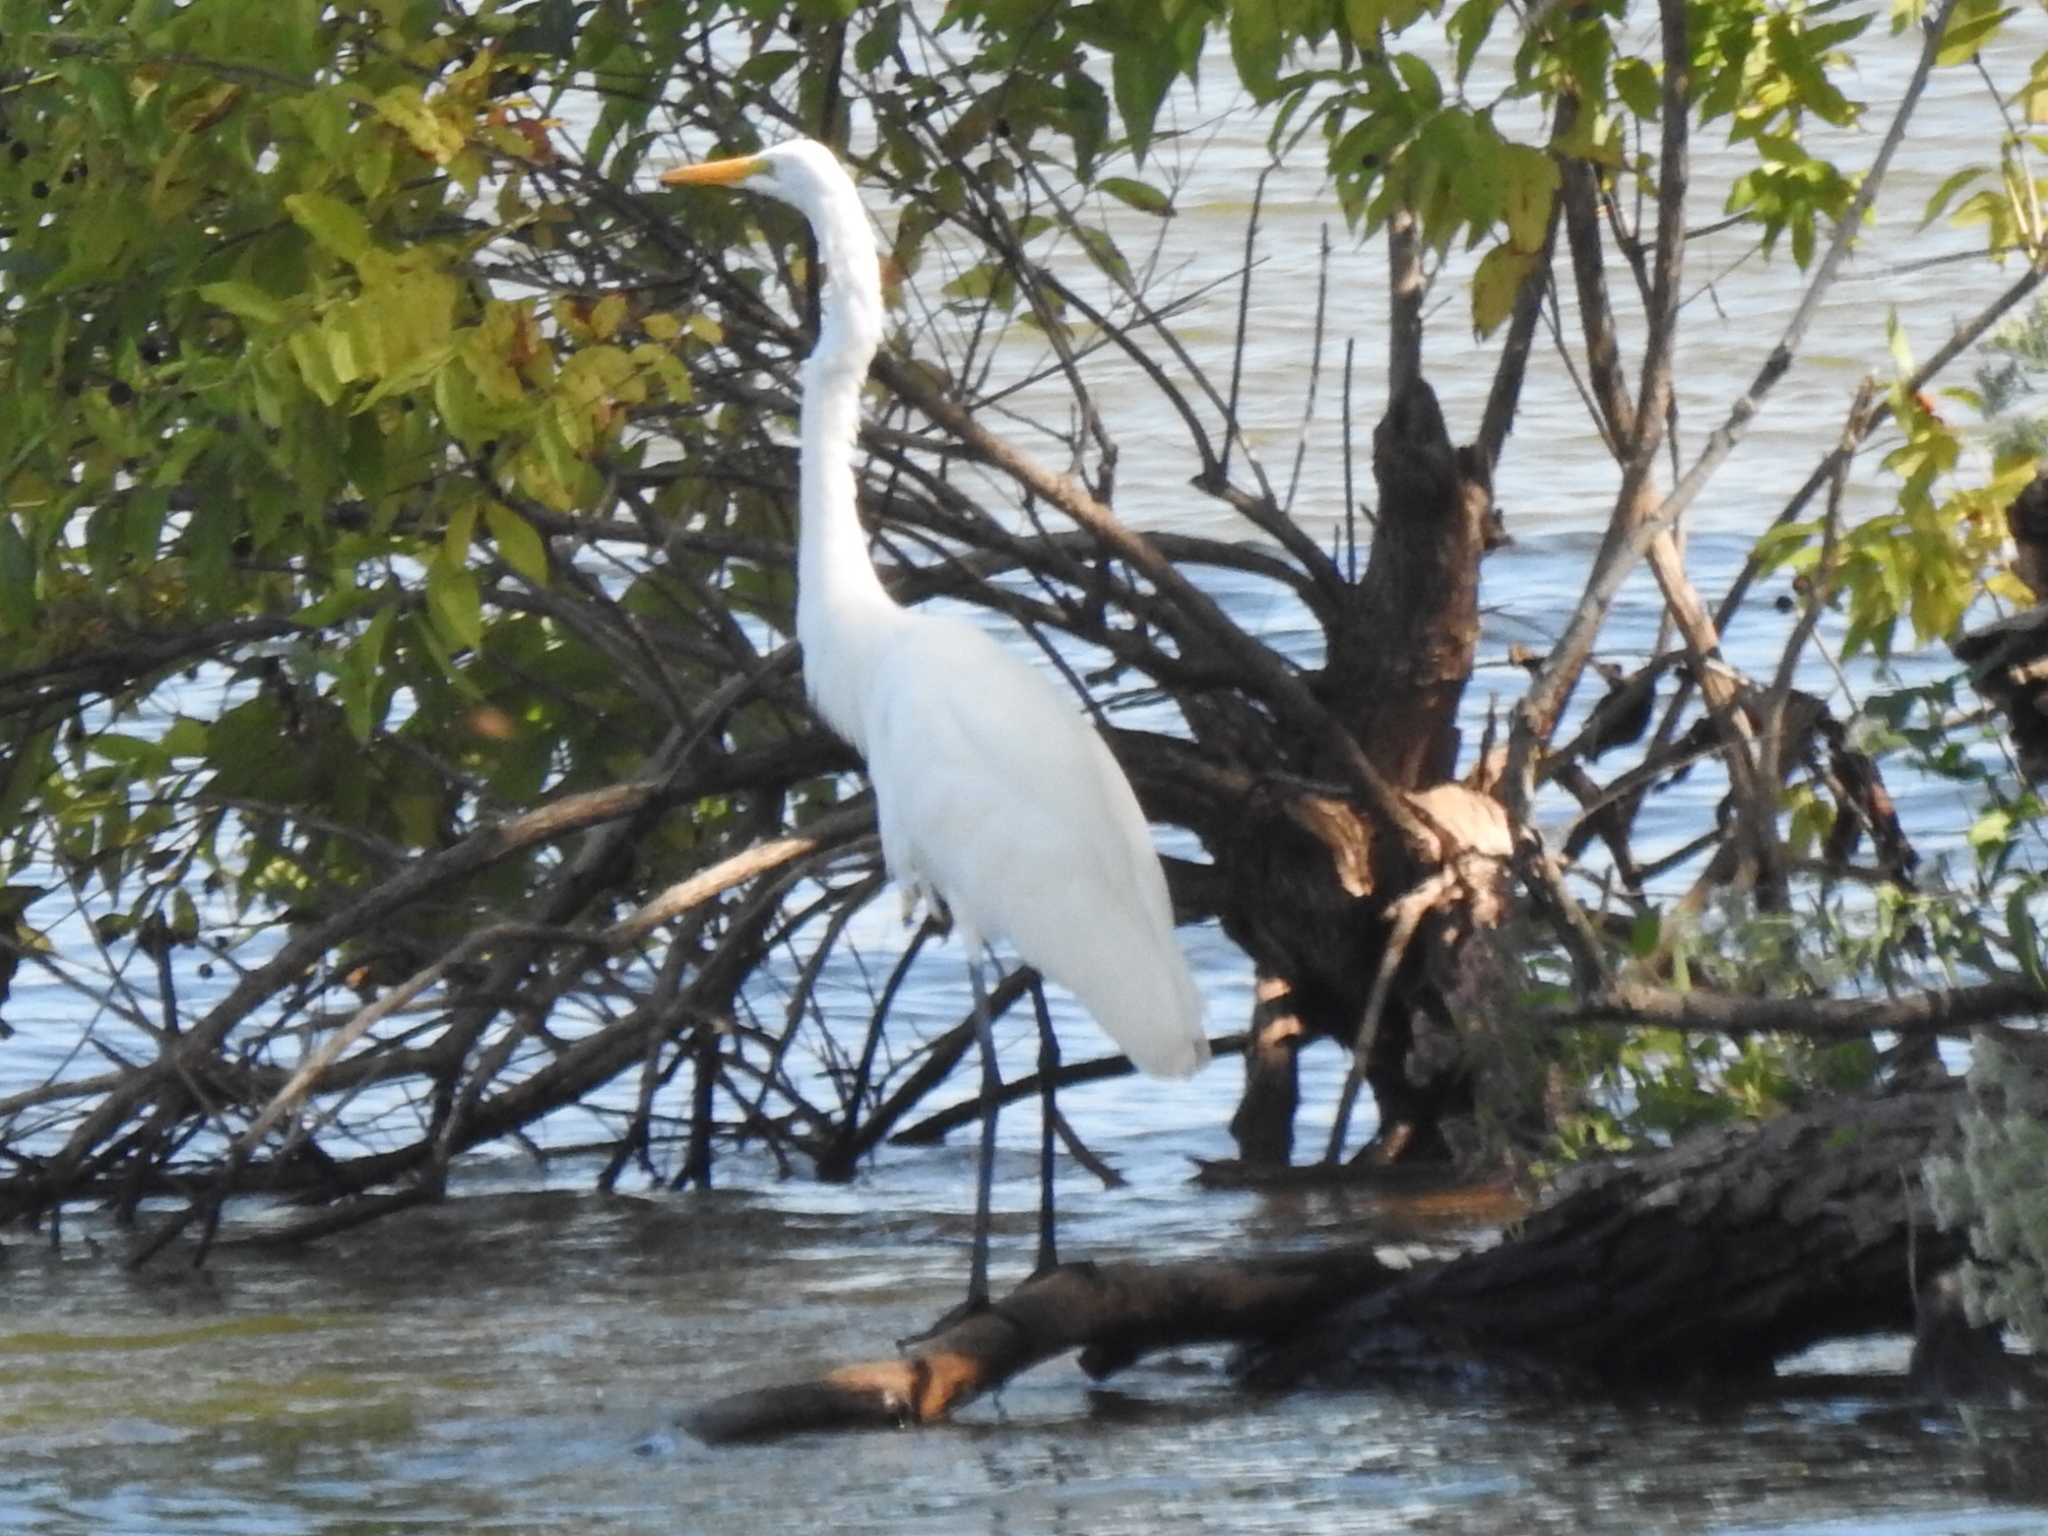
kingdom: Animalia
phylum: Chordata
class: Aves
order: Pelecaniformes
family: Ardeidae
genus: Ardea
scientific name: Ardea alba
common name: Great egret
